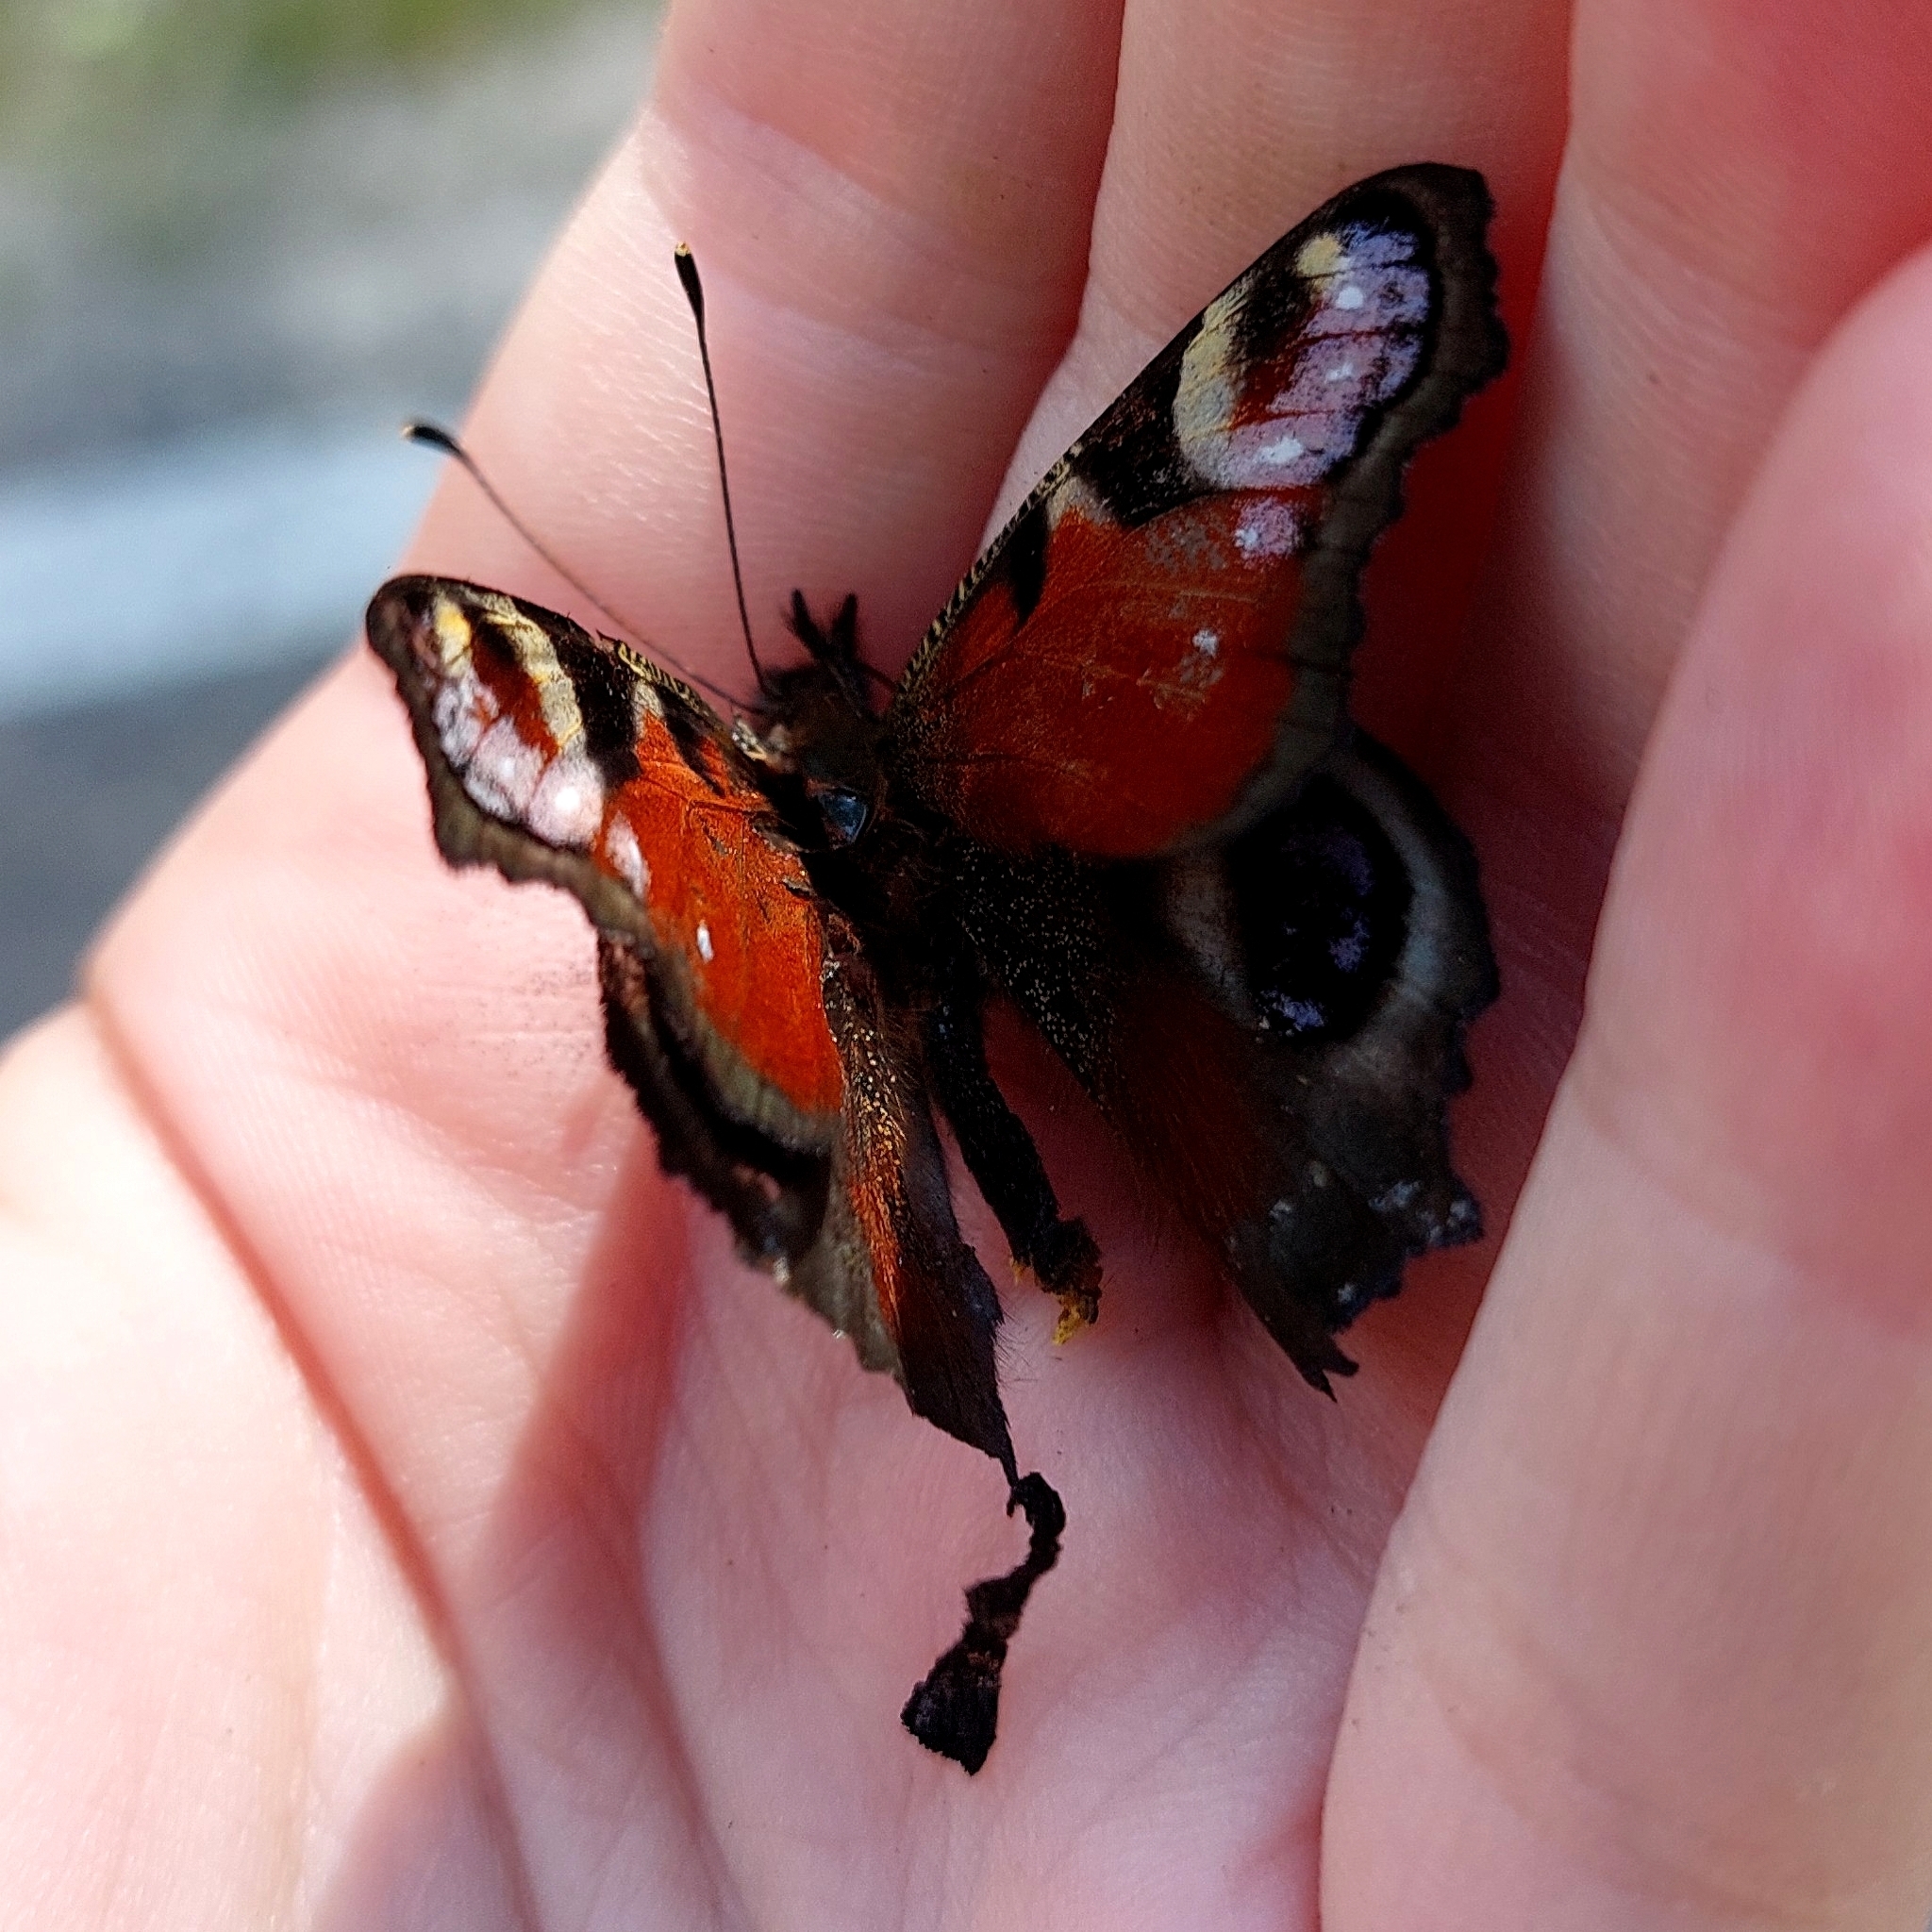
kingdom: Animalia
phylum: Arthropoda
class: Insecta
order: Lepidoptera
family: Nymphalidae
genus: Aglais
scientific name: Aglais io
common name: Peacock
